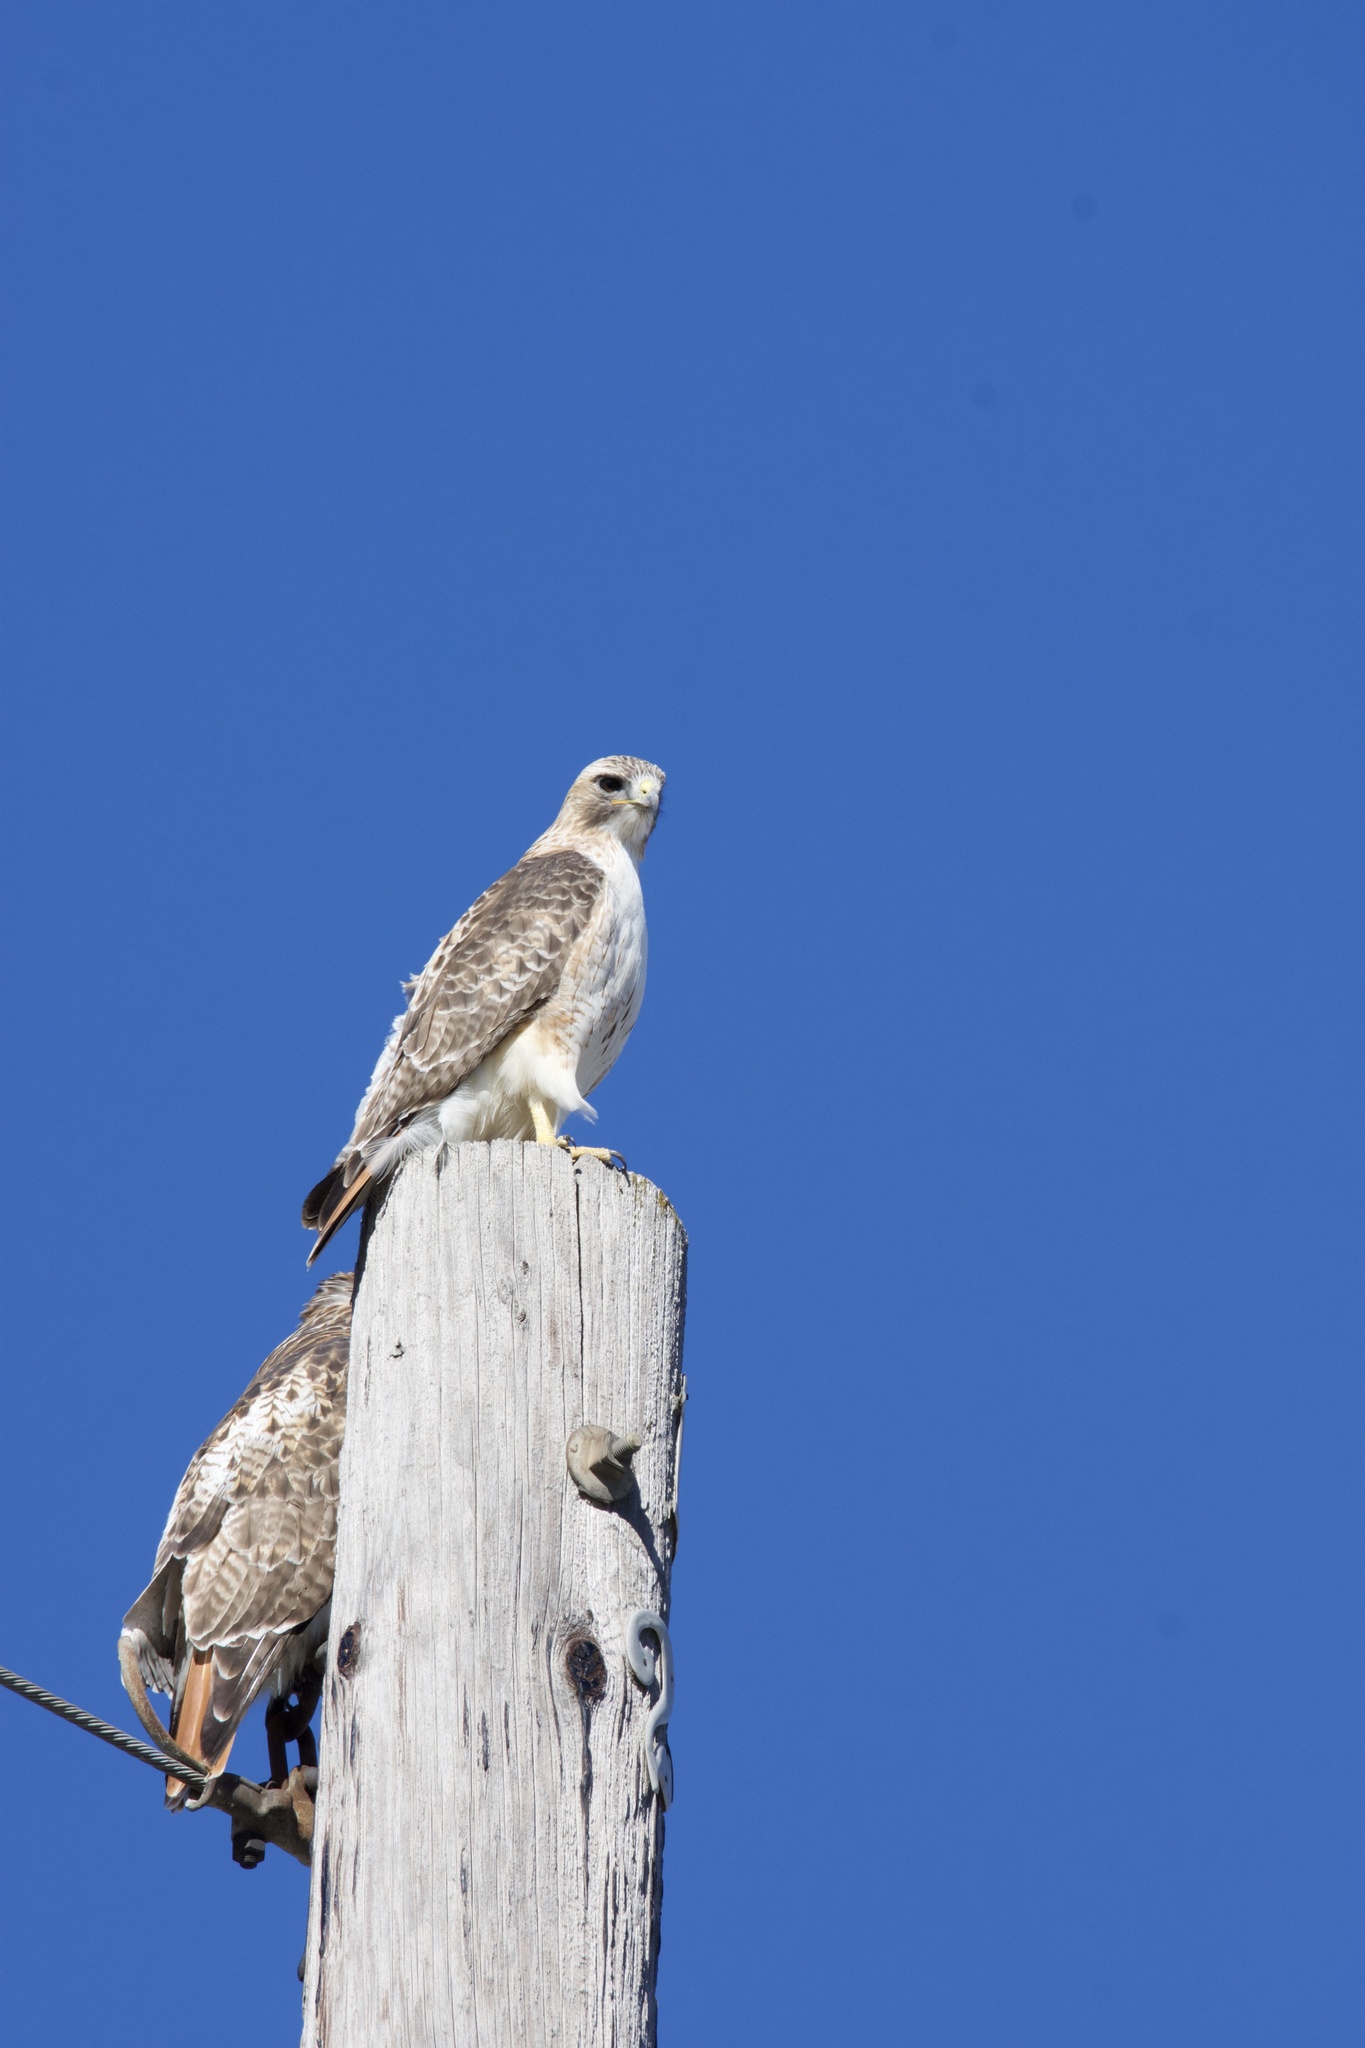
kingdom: Animalia
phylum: Chordata
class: Aves
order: Accipitriformes
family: Accipitridae
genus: Buteo
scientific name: Buteo jamaicensis
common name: Red-tailed hawk
